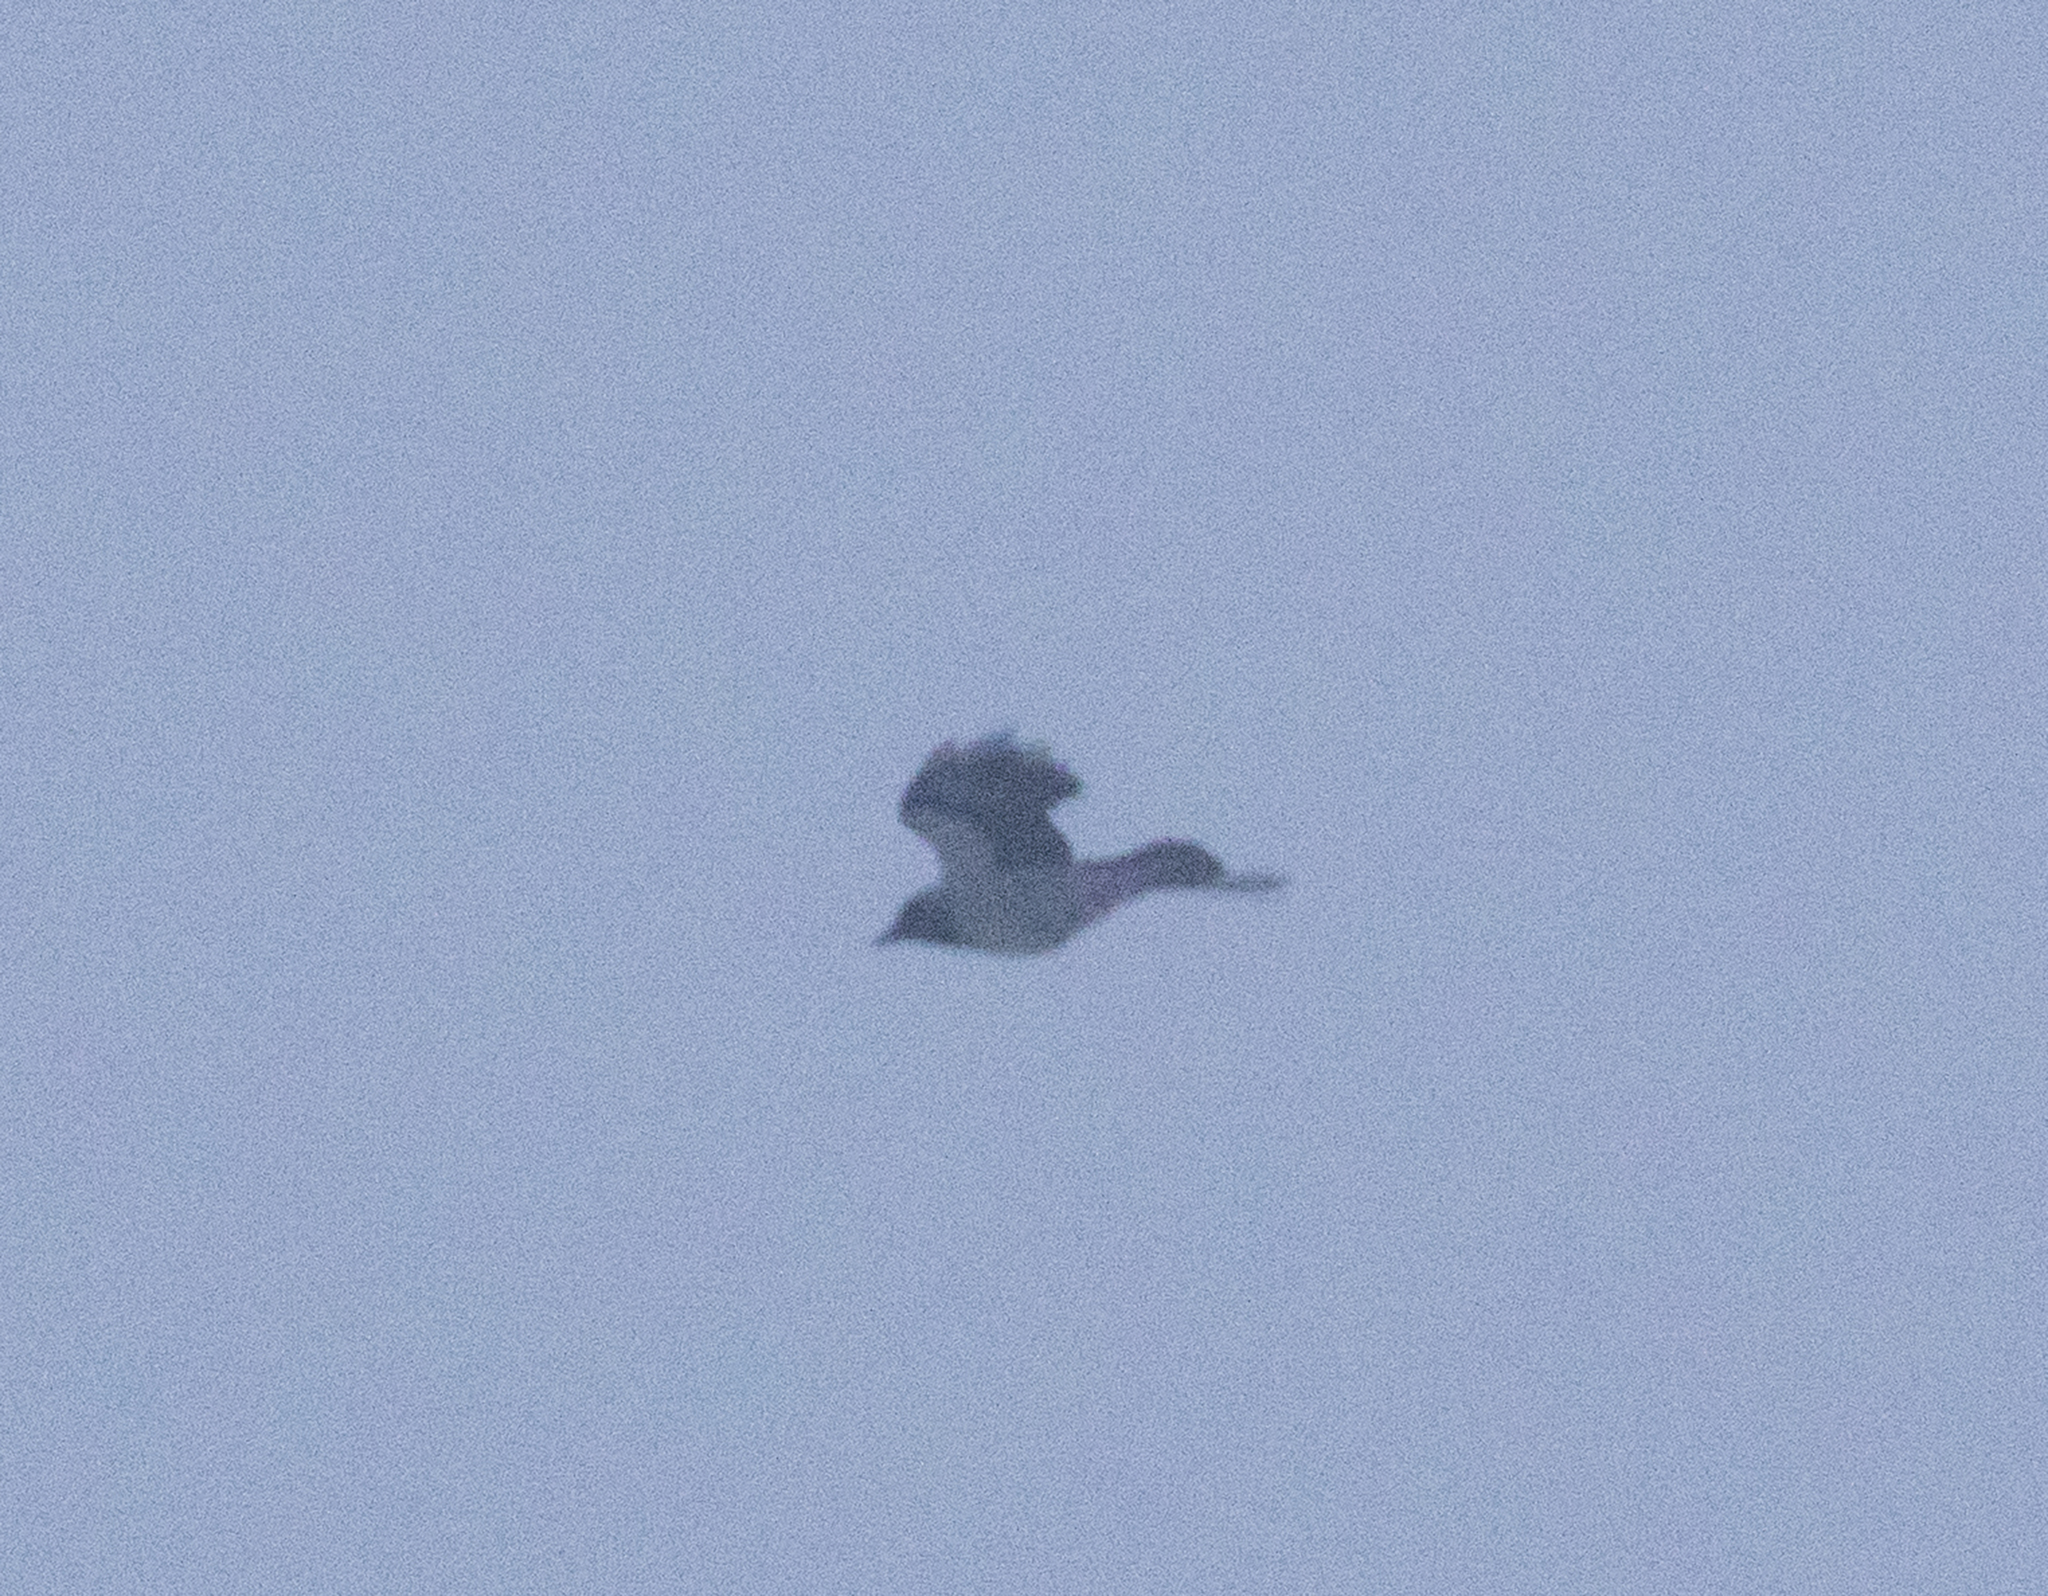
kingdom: Animalia
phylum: Chordata
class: Aves
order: Passeriformes
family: Corvidae
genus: Corvus
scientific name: Corvus cornix
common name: Hooded crow
